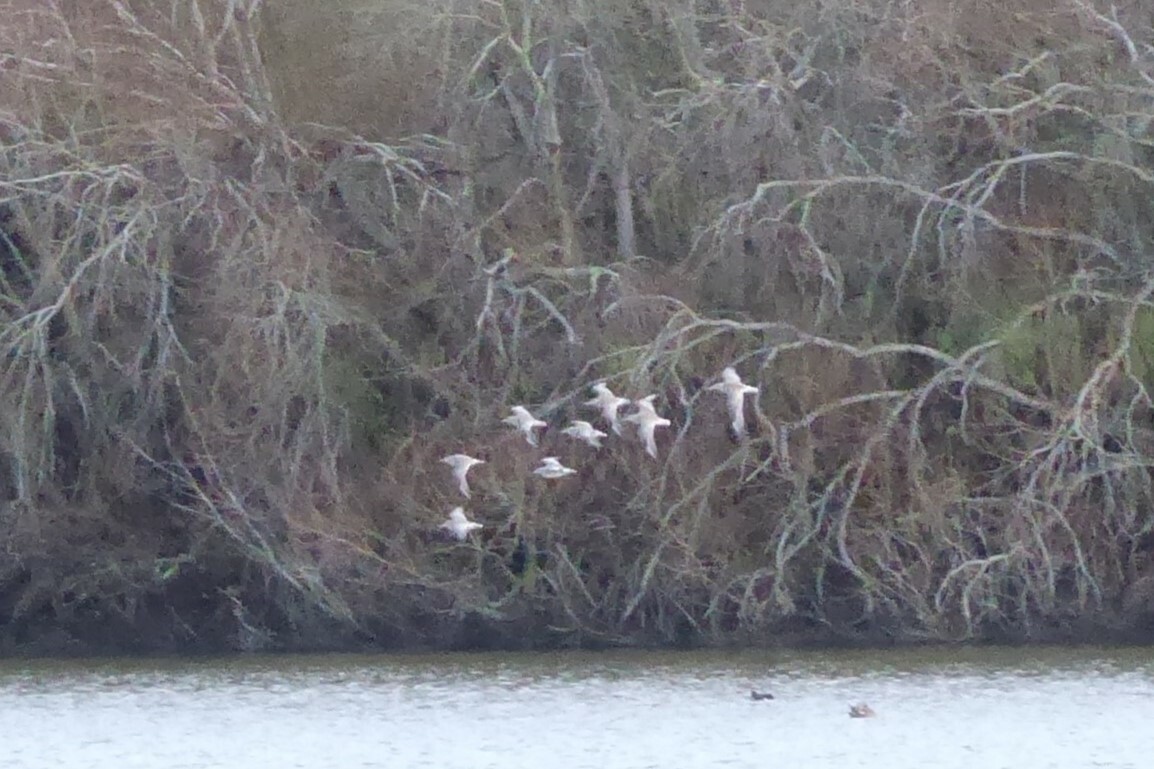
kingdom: Animalia
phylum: Chordata
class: Aves
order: Charadriiformes
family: Scolopacidae
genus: Limosa
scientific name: Limosa lapponica
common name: Bar-tailed godwit
